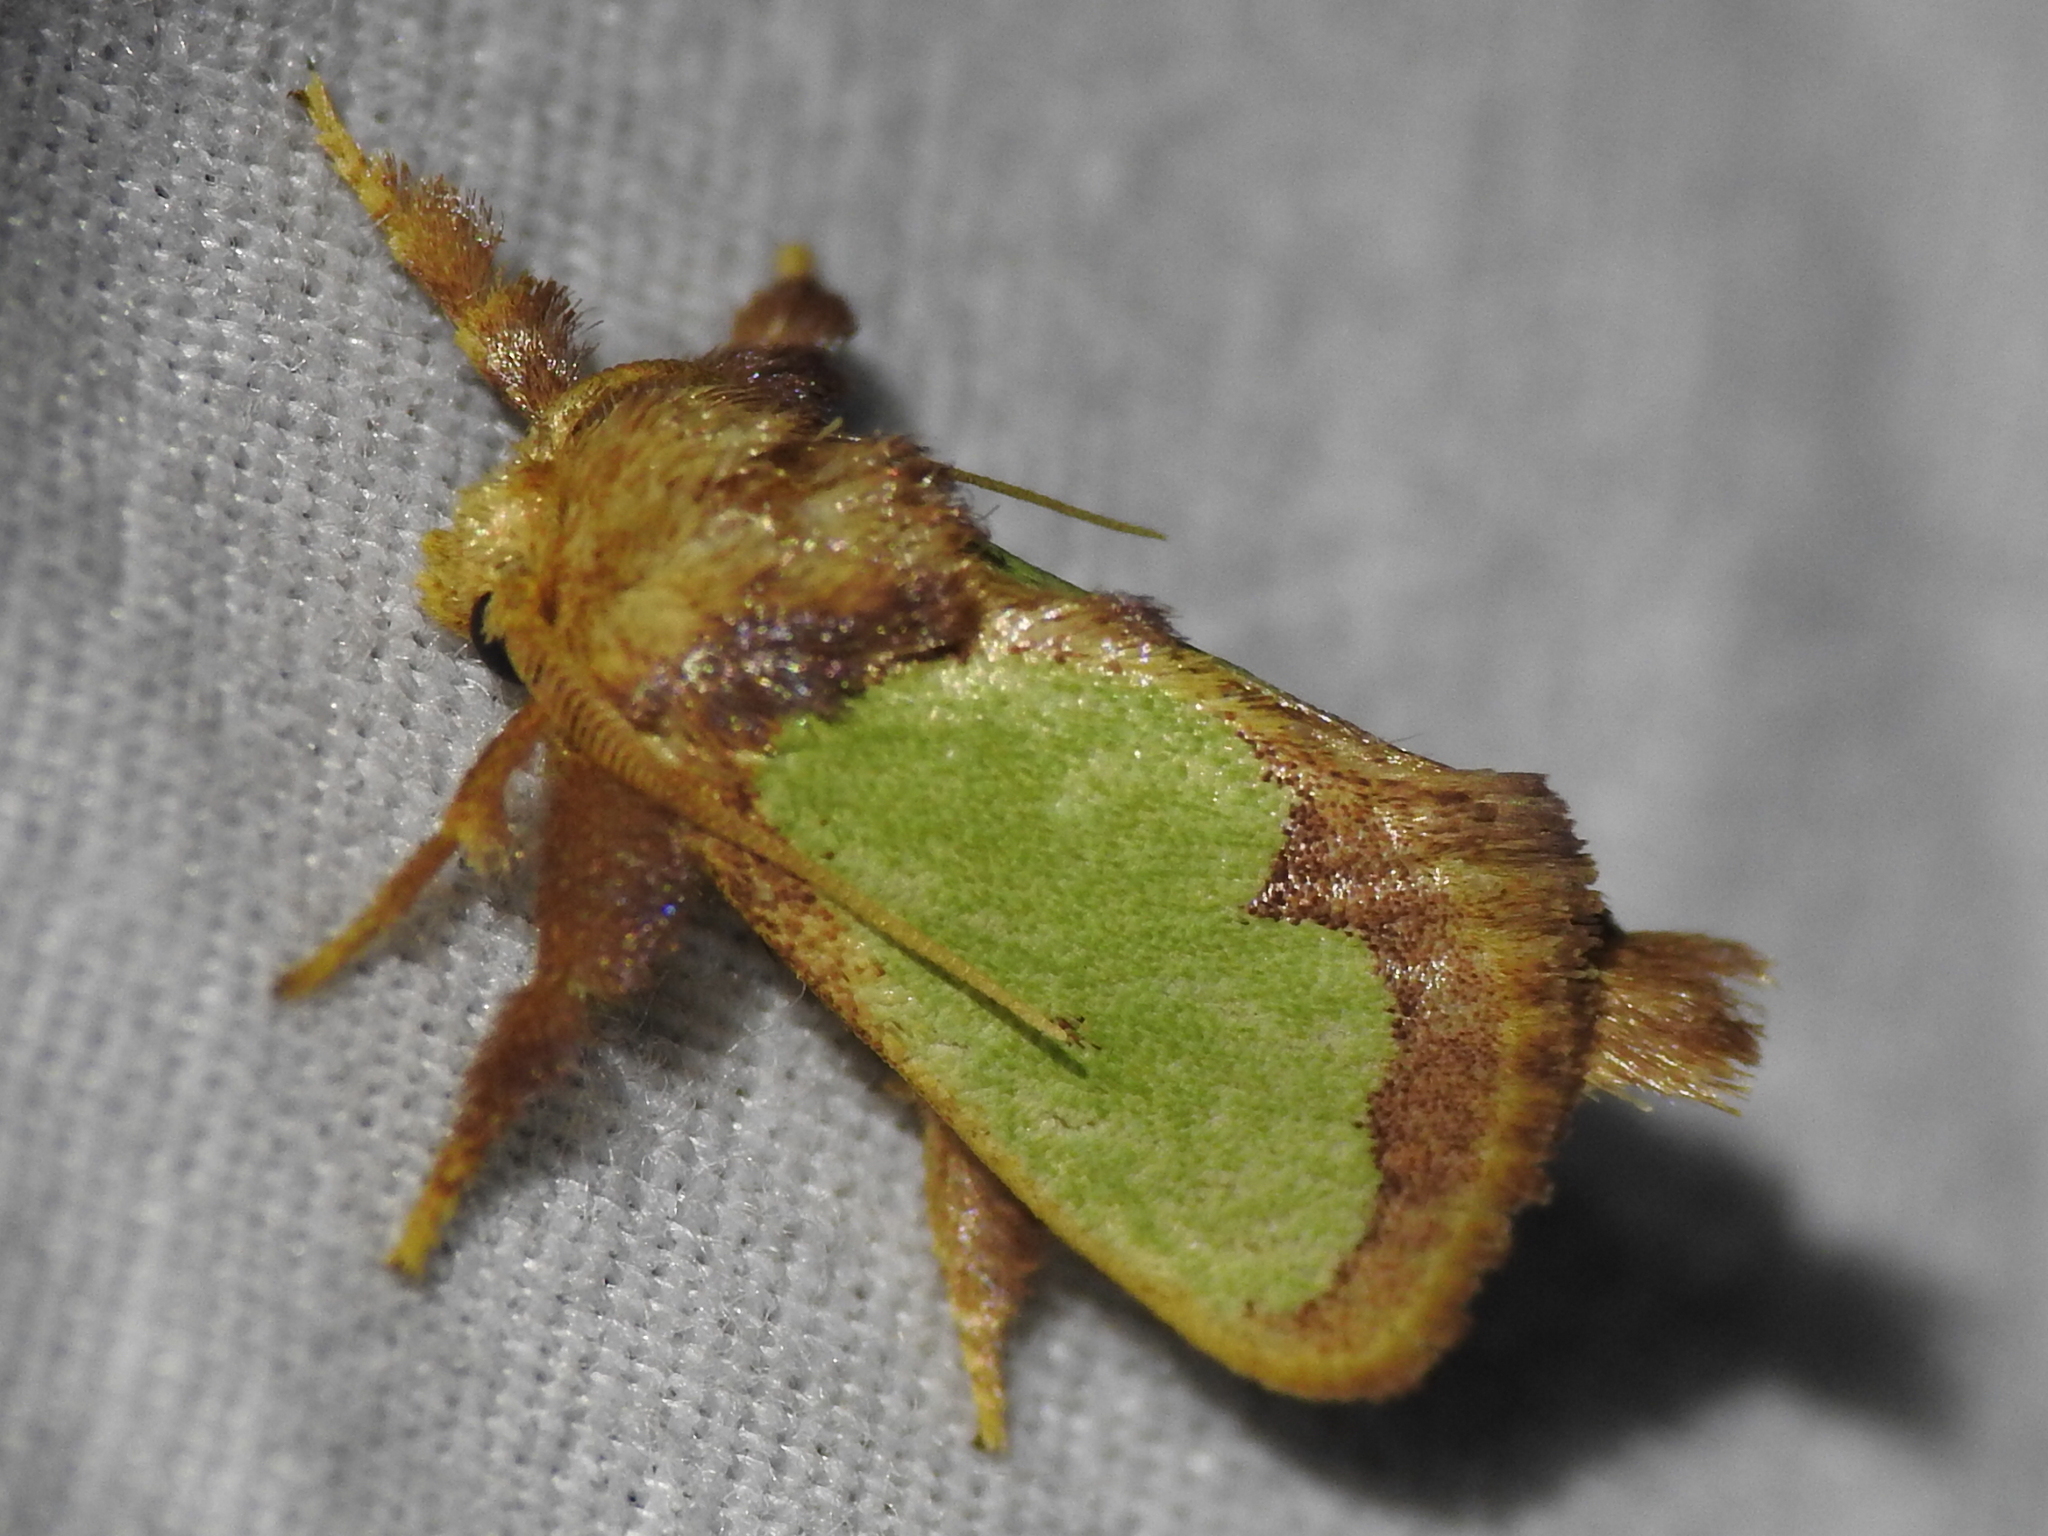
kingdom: Animalia
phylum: Arthropoda
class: Insecta
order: Lepidoptera
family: Limacodidae
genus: Euclea
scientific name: Euclea incisa
